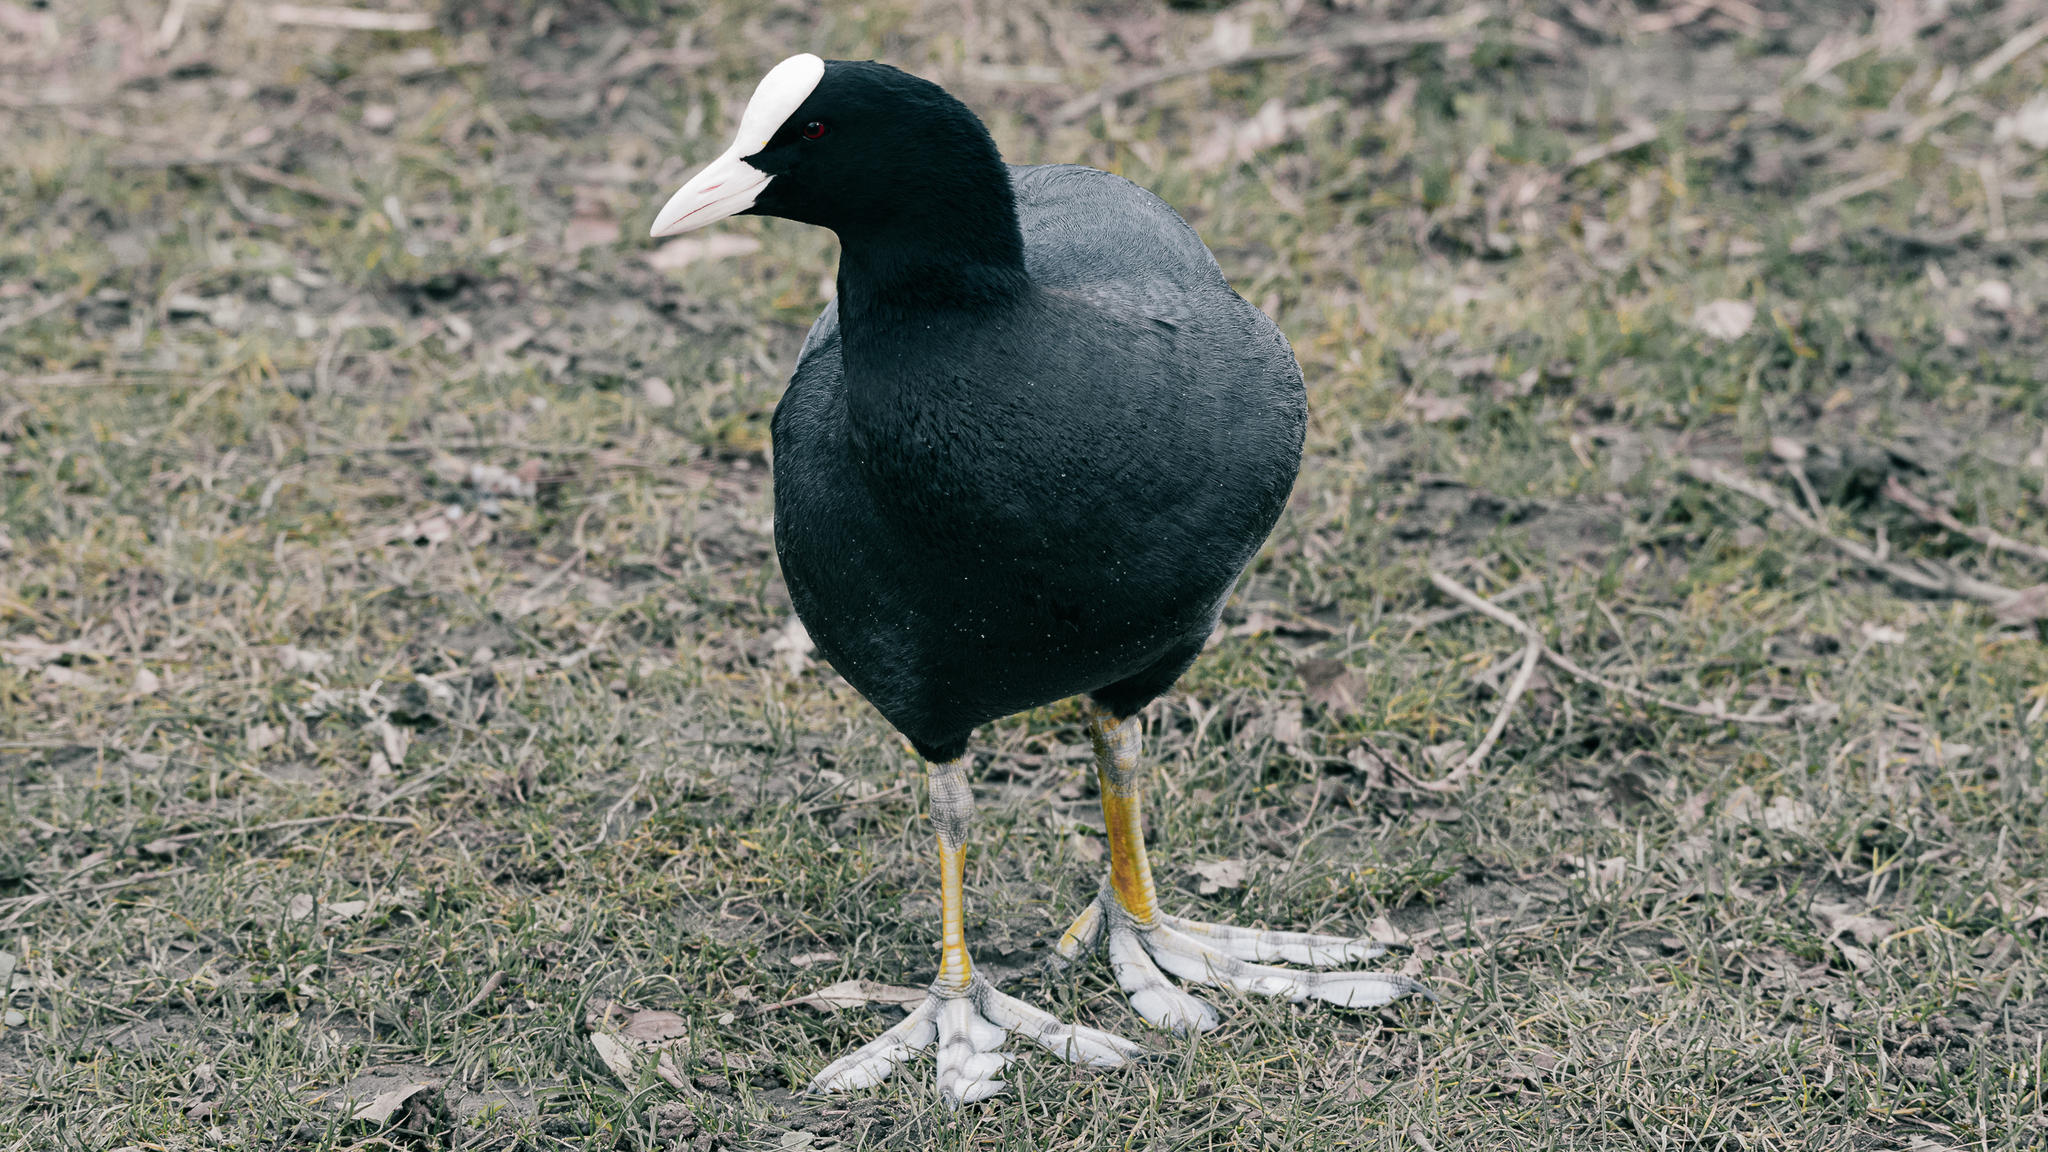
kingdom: Animalia
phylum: Chordata
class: Aves
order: Gruiformes
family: Rallidae
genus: Fulica
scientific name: Fulica atra
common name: Eurasian coot
